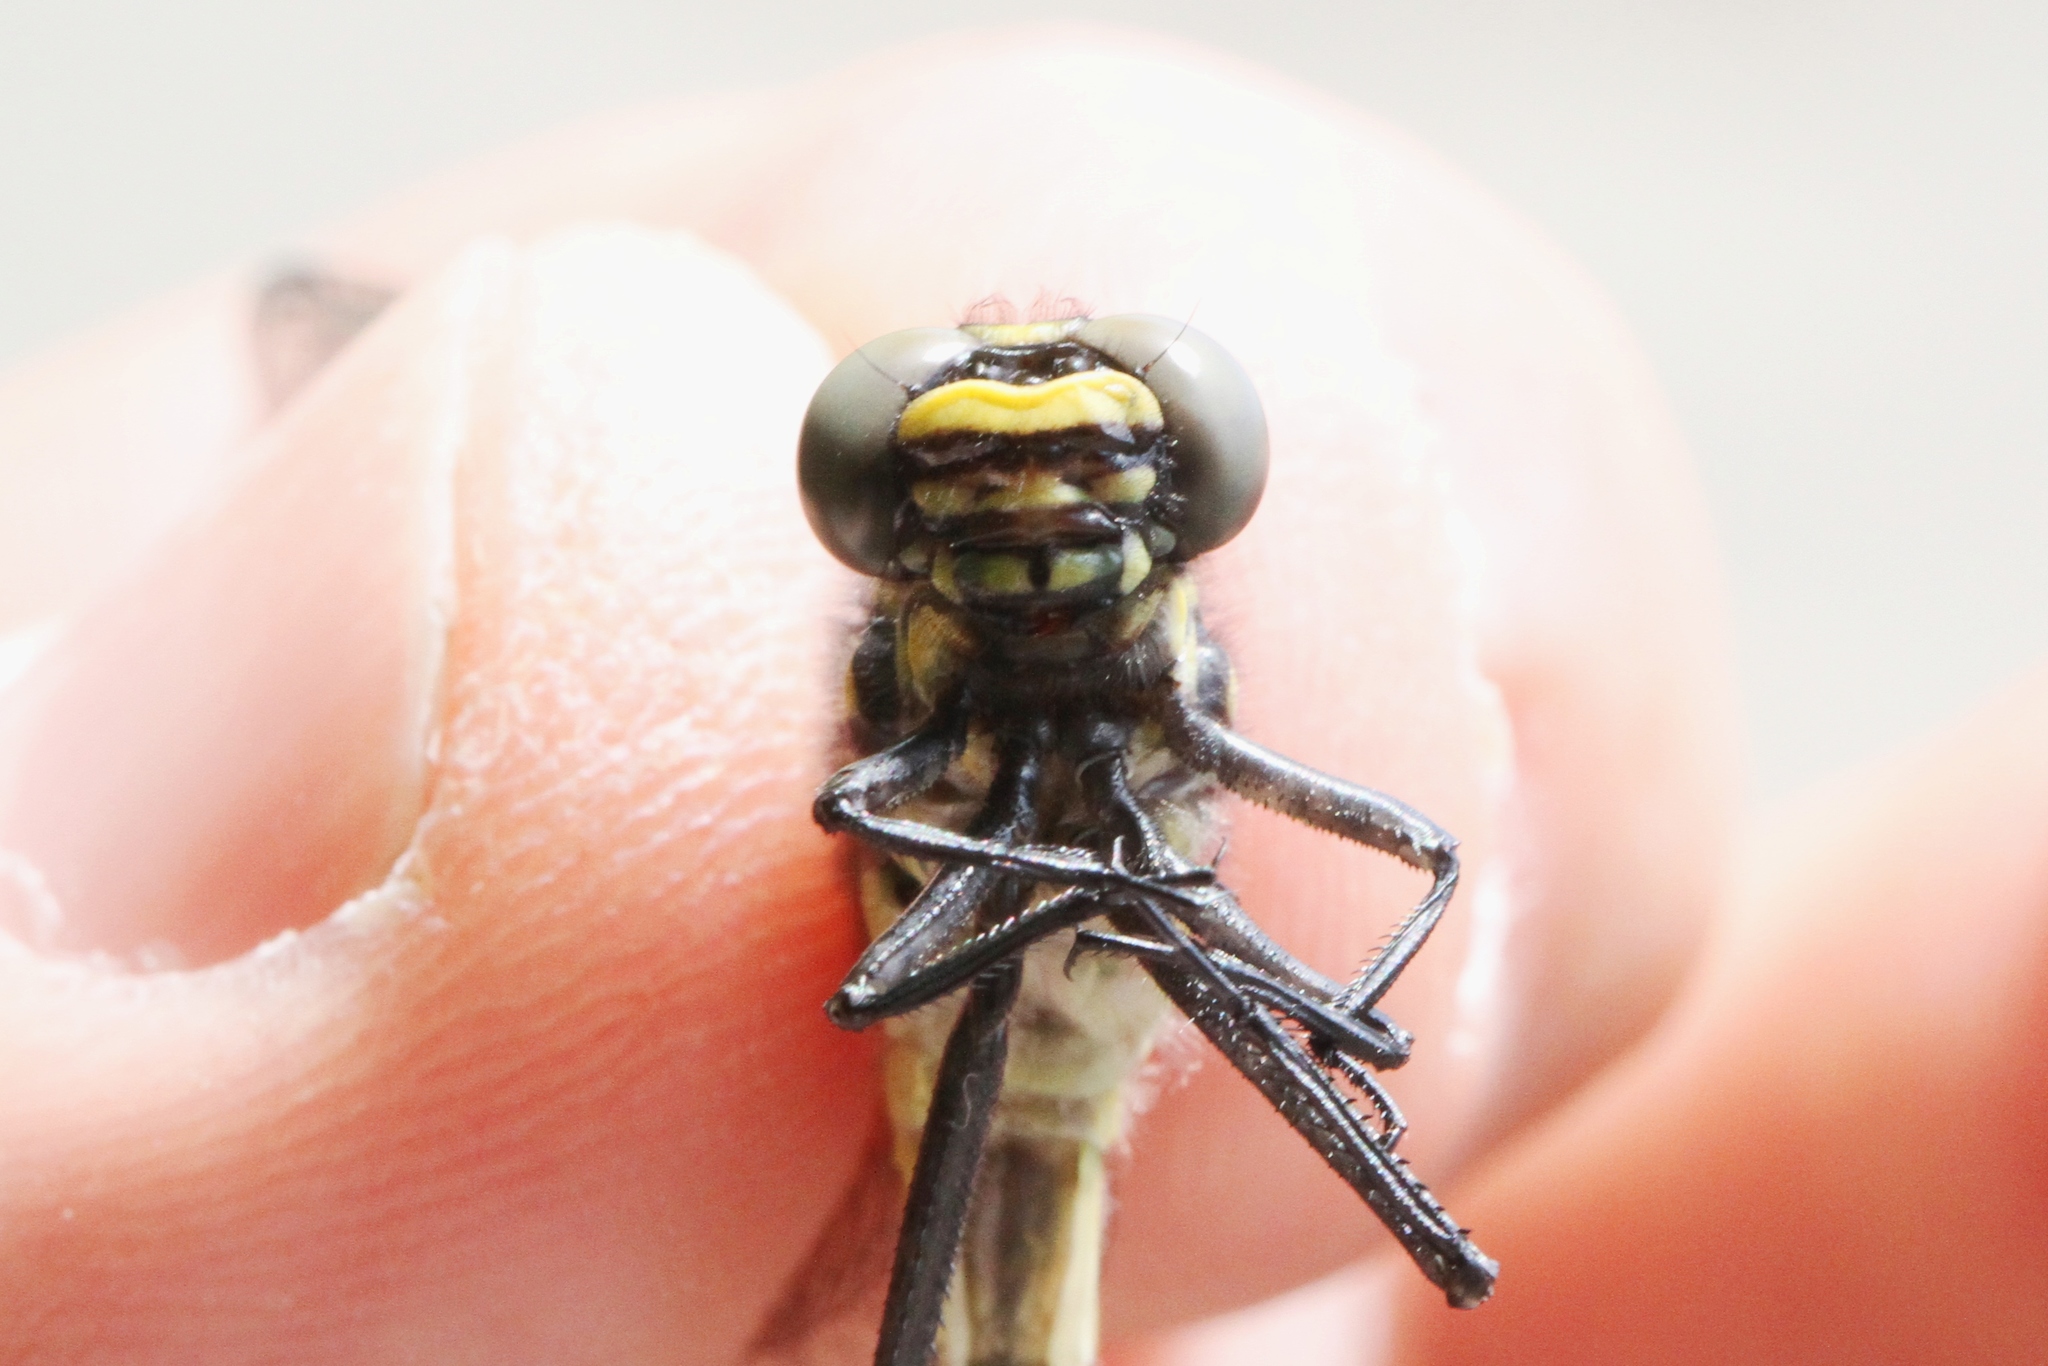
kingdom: Animalia
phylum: Arthropoda
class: Insecta
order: Odonata
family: Gomphidae
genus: Gomphurus
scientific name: Gomphurus vastus
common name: Cobra clubtail
